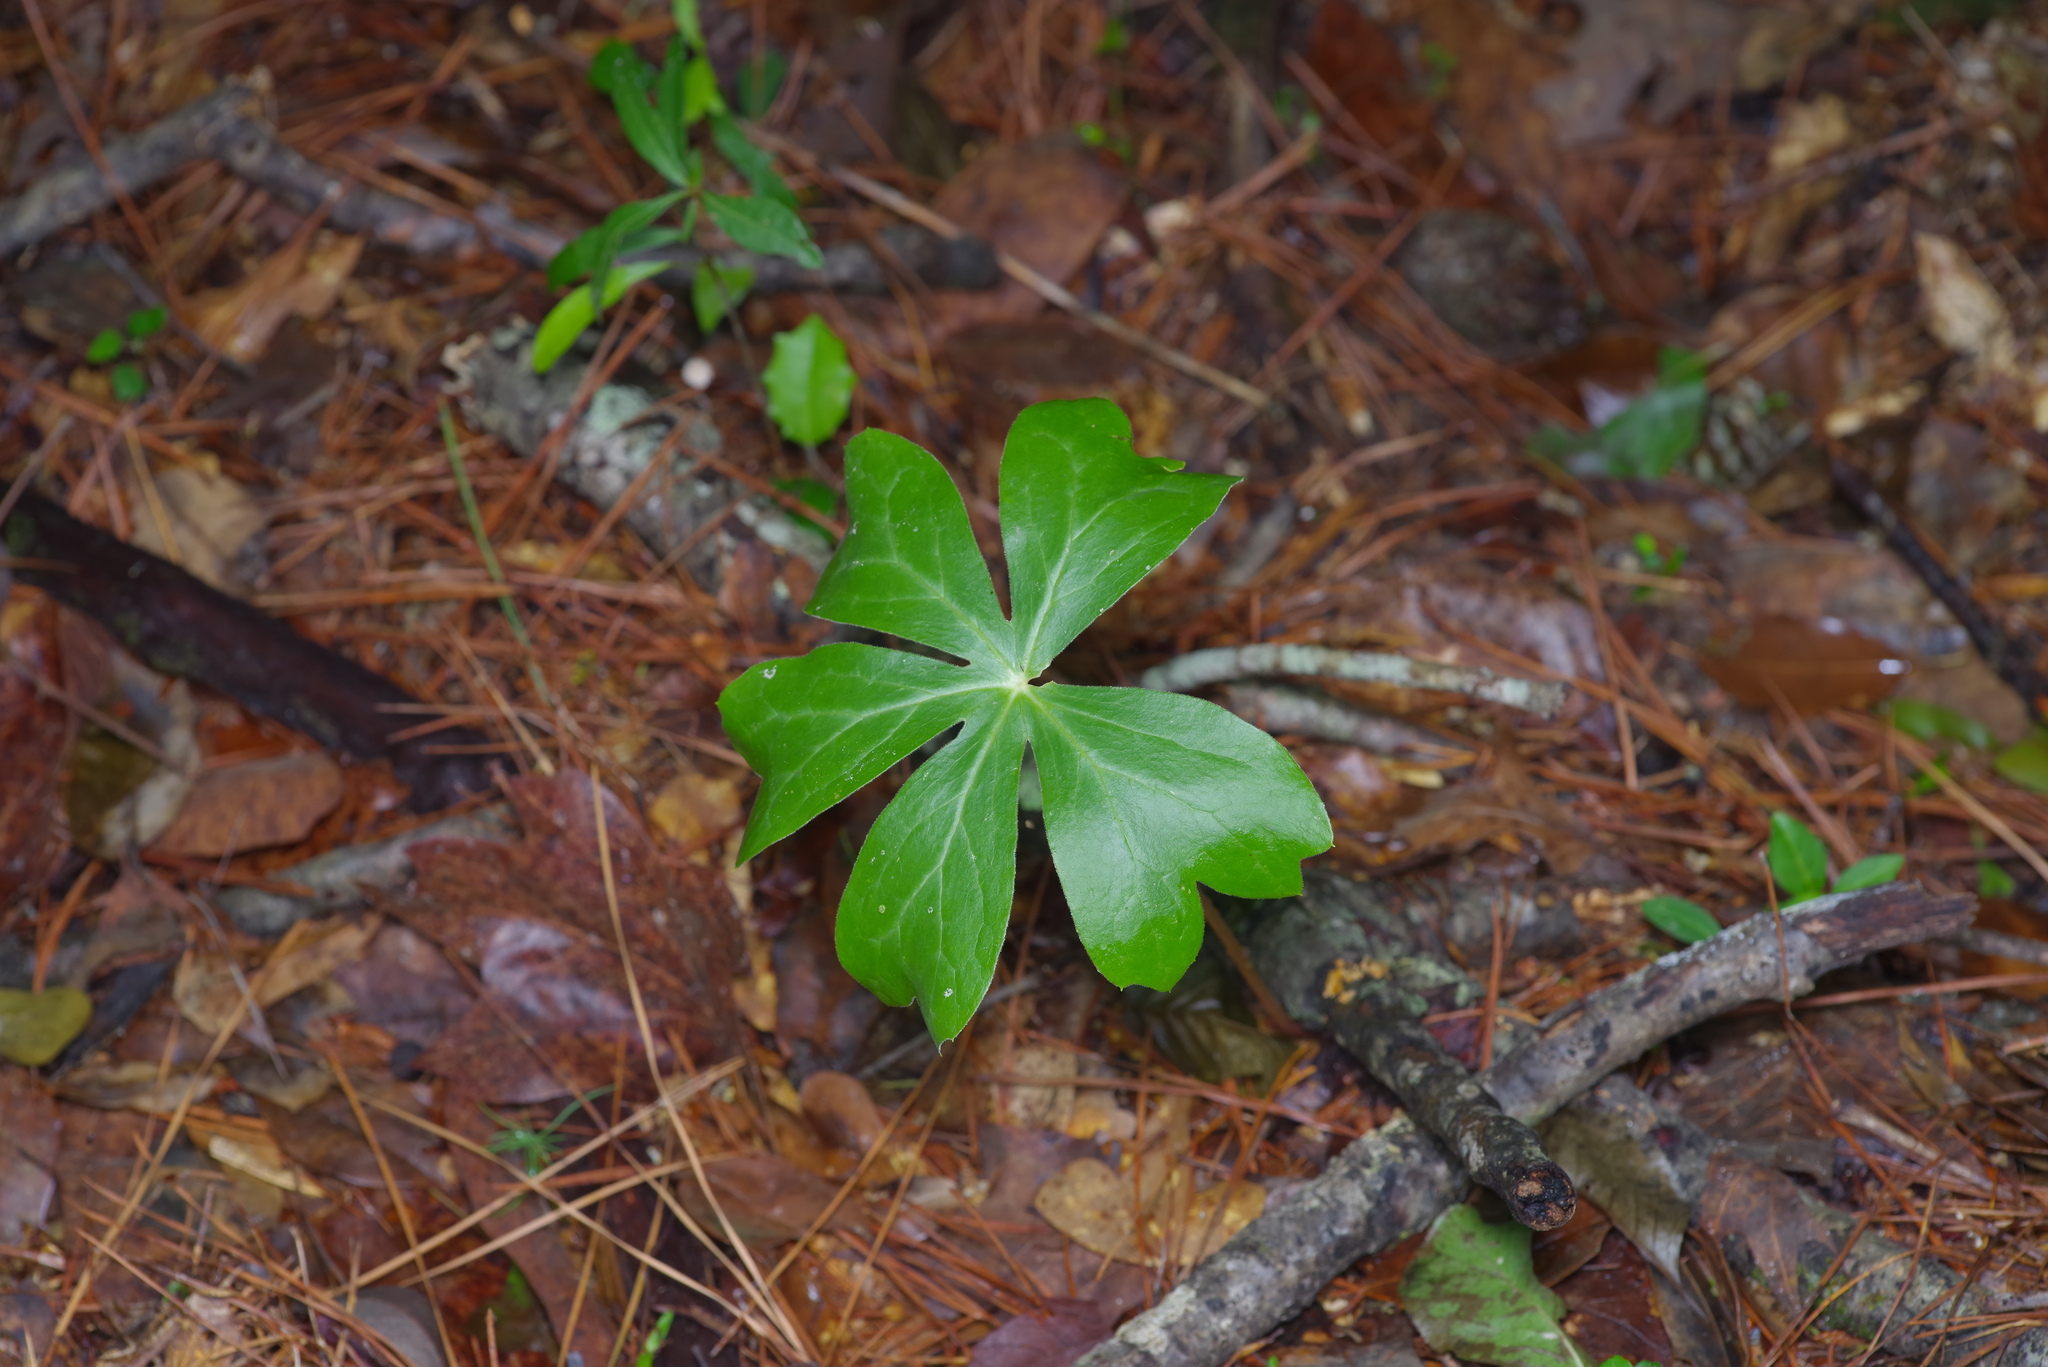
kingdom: Plantae
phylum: Tracheophyta
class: Magnoliopsida
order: Ranunculales
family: Berberidaceae
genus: Podophyllum
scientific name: Podophyllum peltatum
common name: Wild mandrake
